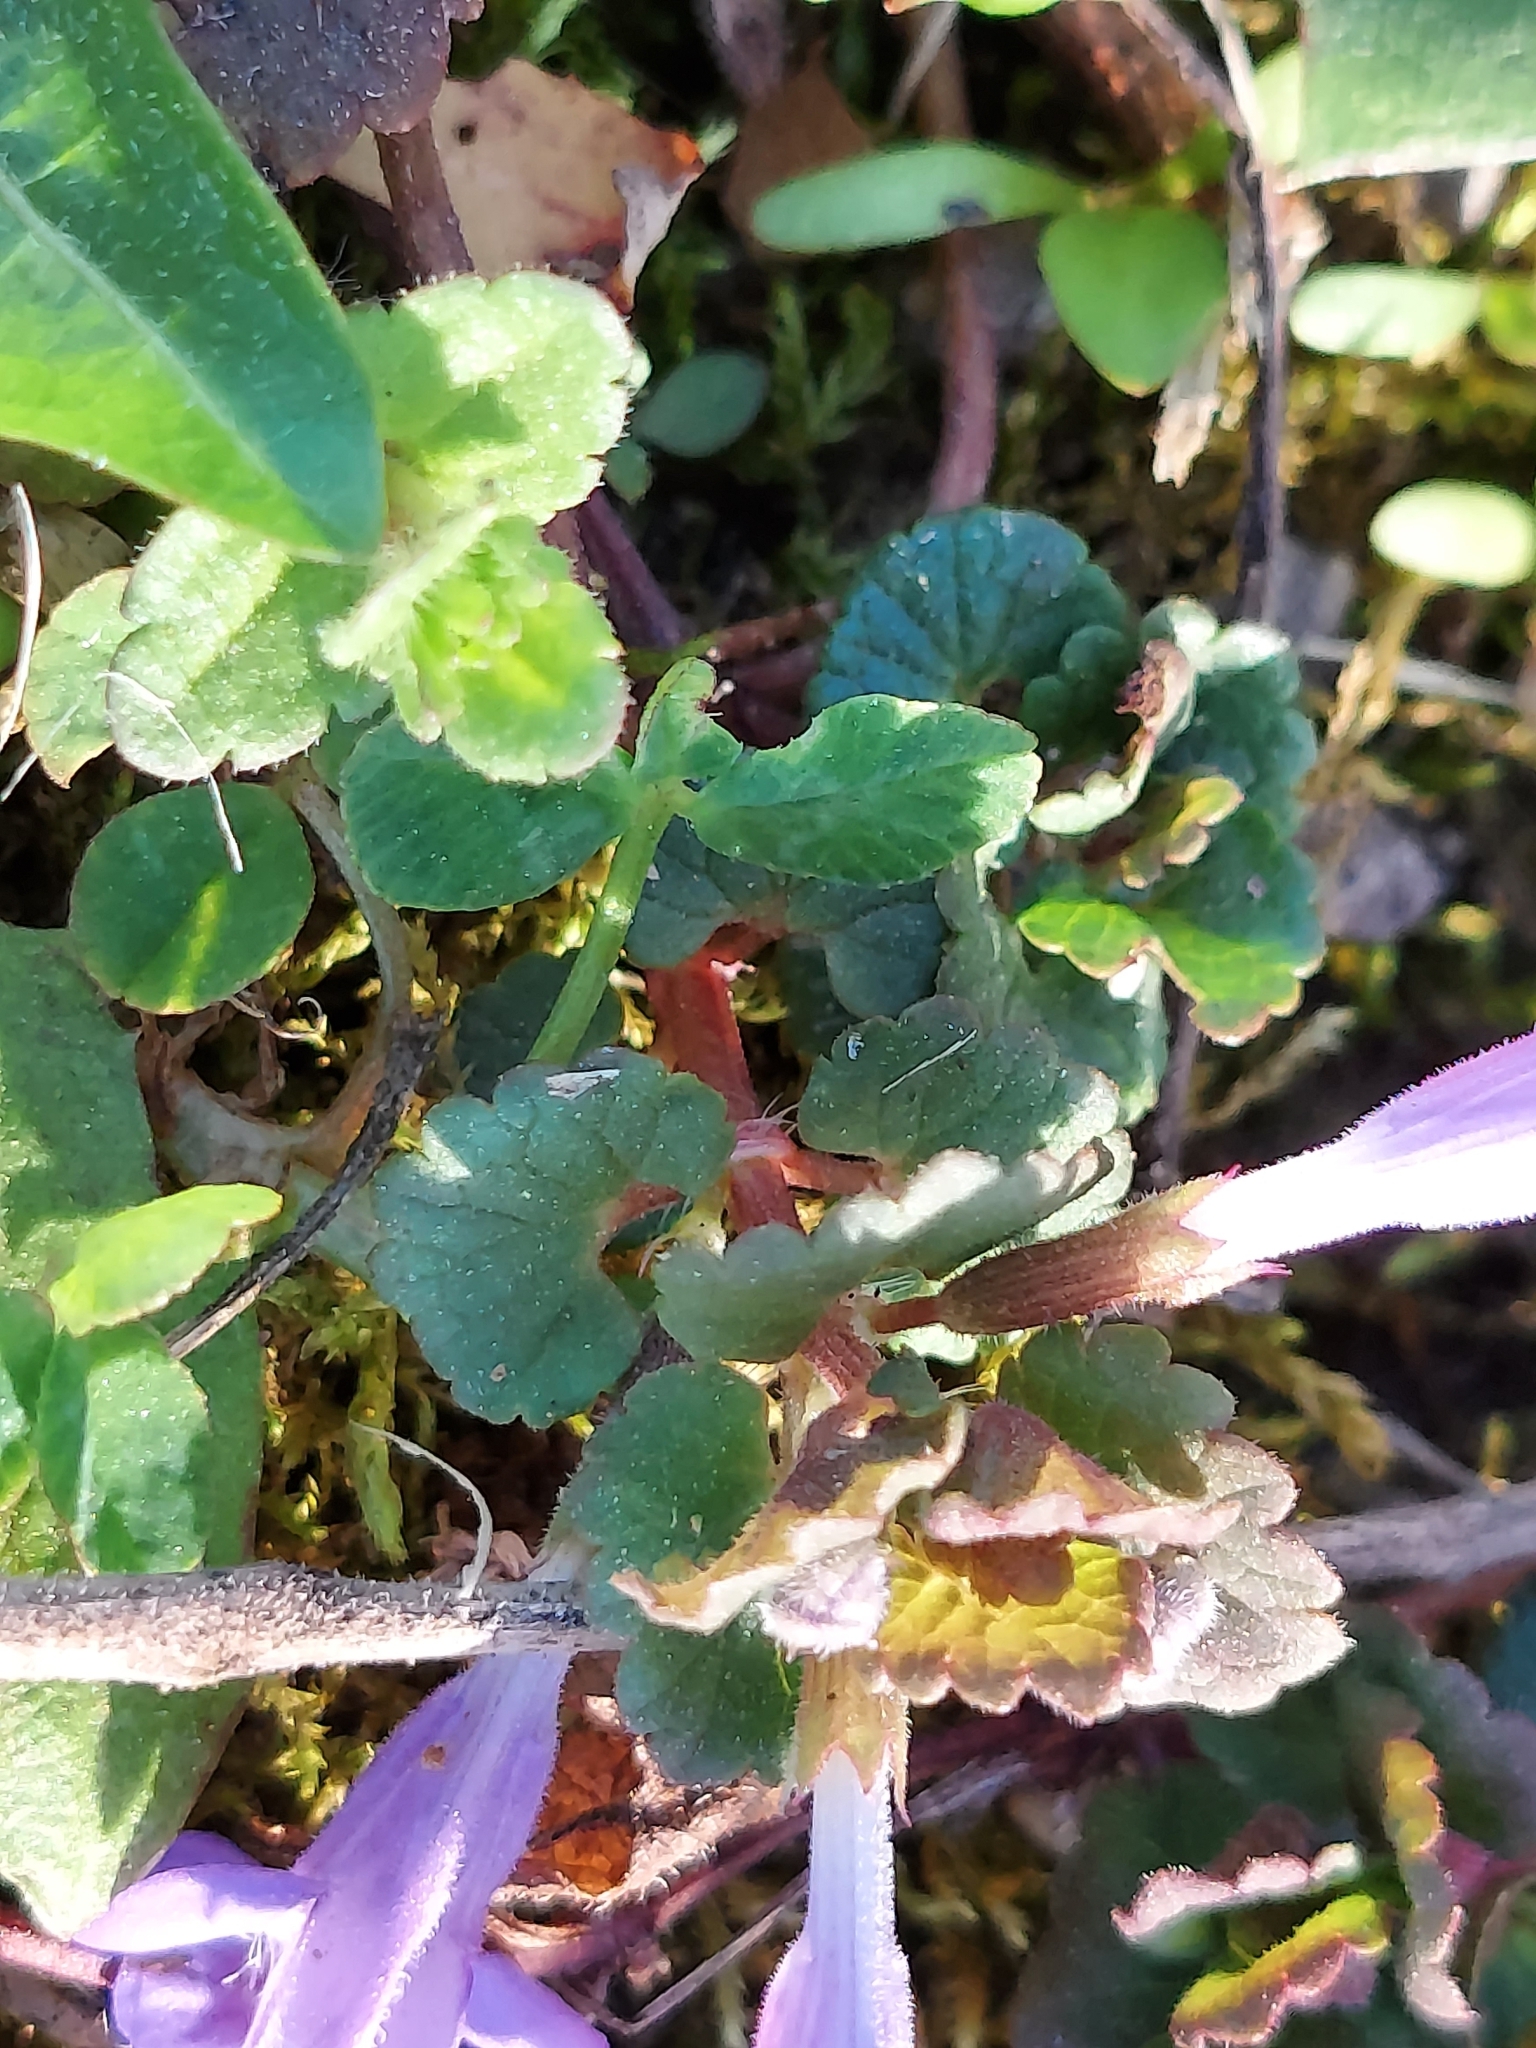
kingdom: Plantae
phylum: Tracheophyta
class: Magnoliopsida
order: Lamiales
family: Lamiaceae
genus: Glechoma
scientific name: Glechoma hederacea
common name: Ground ivy
